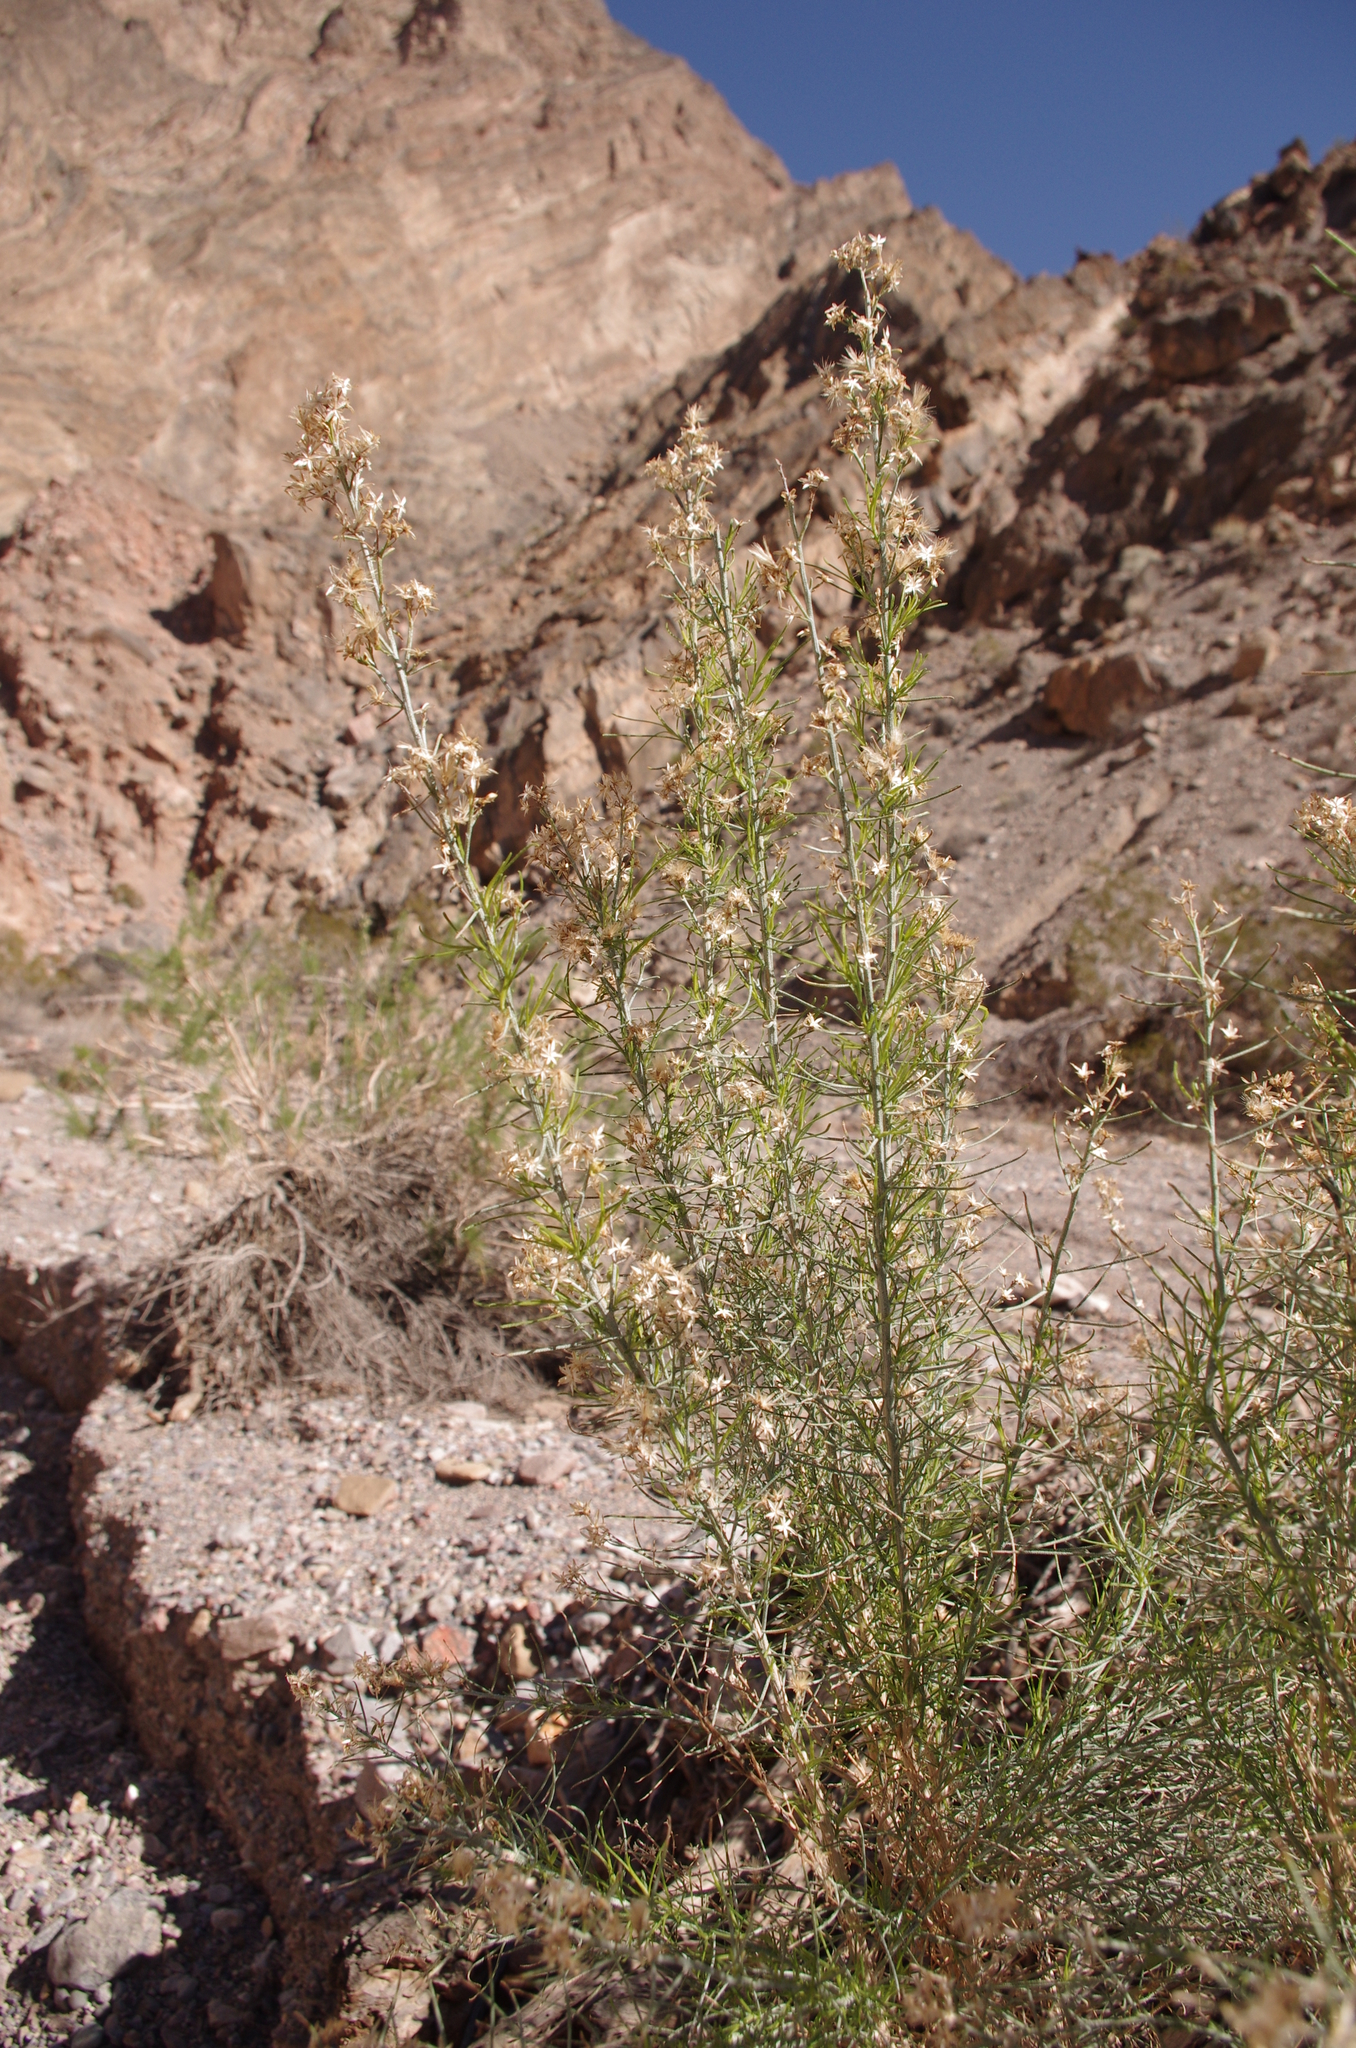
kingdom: Plantae
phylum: Tracheophyta
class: Magnoliopsida
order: Asterales
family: Asteraceae
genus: Ericameria
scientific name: Ericameria paniculata
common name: Punctate rabbitbrush
